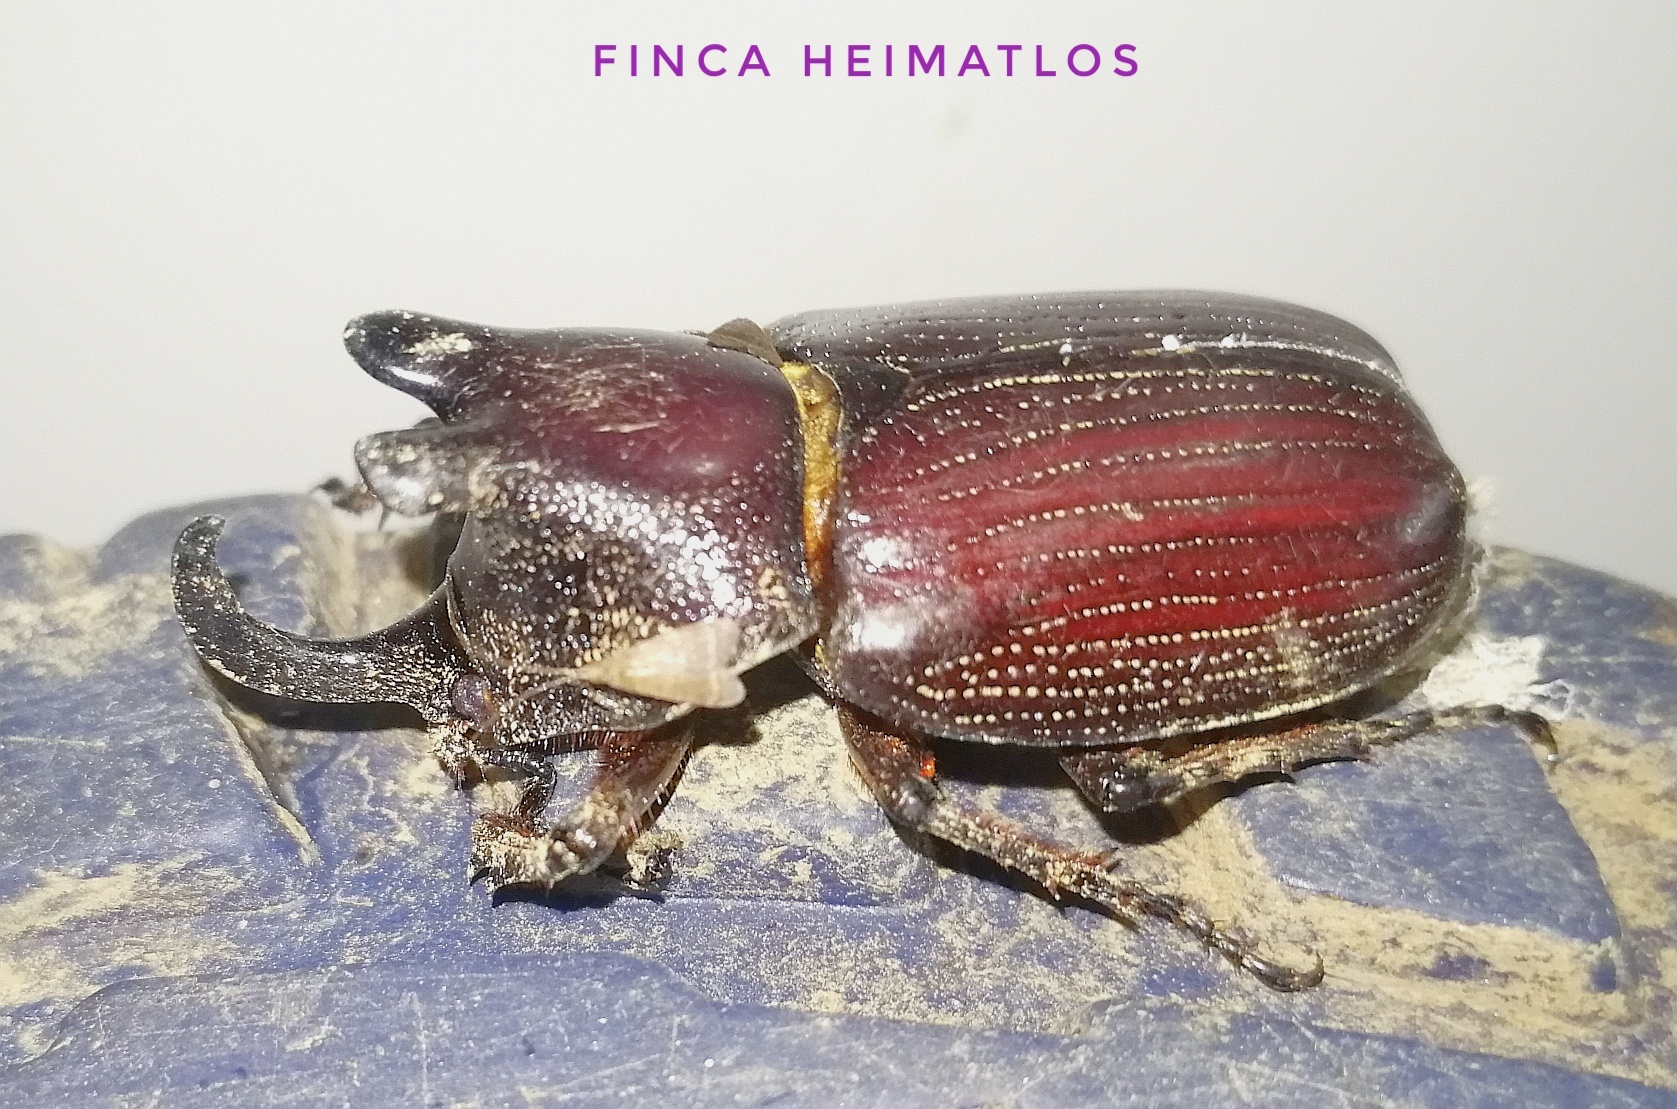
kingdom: Animalia
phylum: Arthropoda
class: Insecta
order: Coleoptera
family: Scarabaeidae
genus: Coelosis
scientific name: Coelosis biloba
